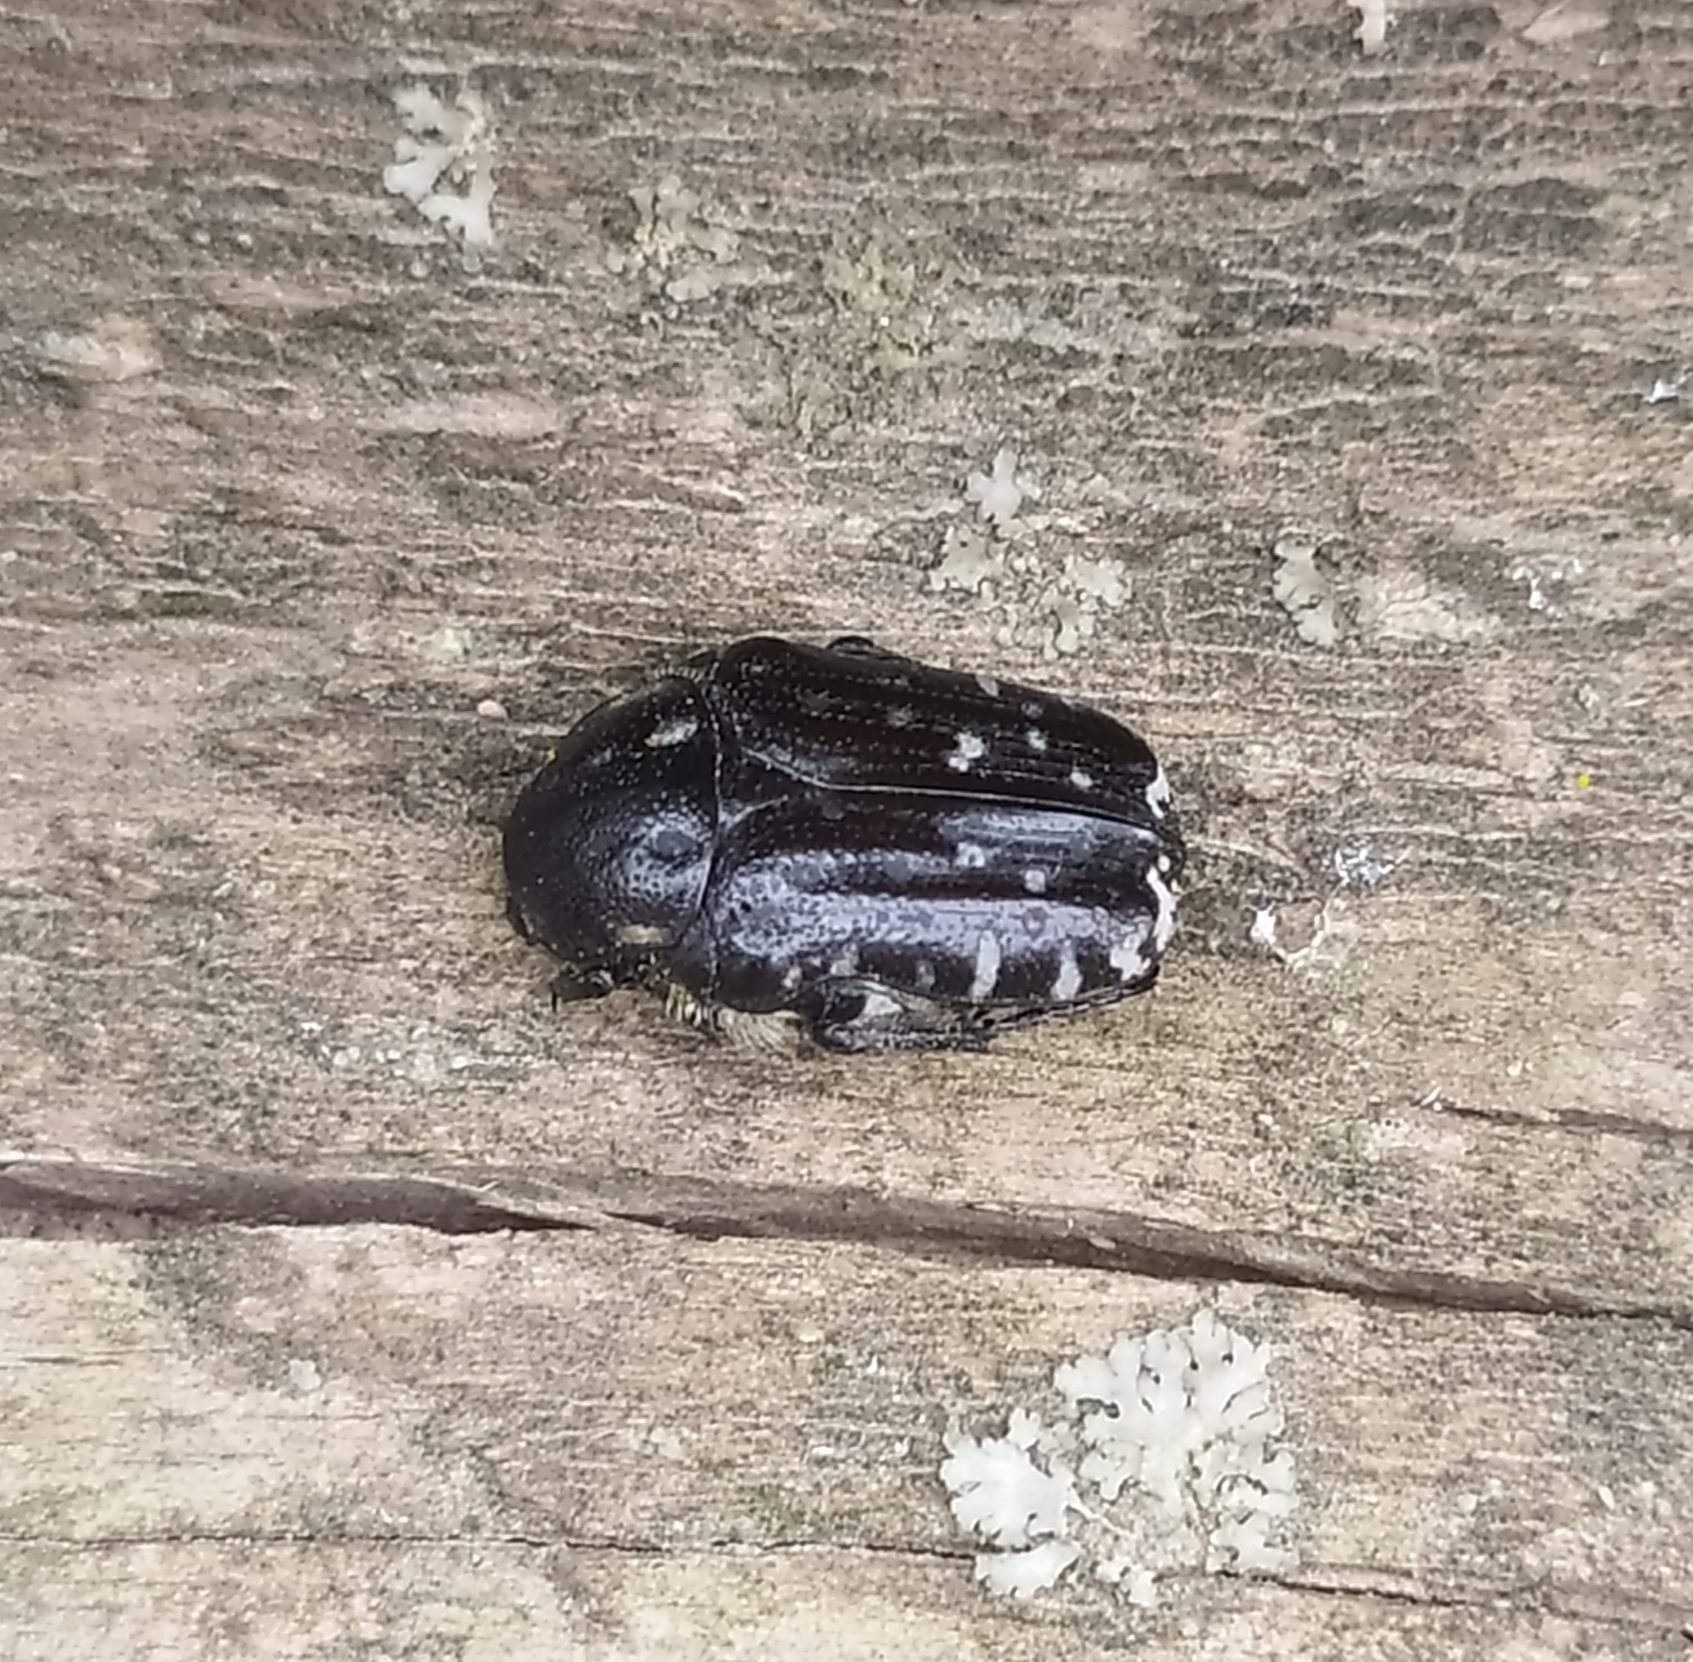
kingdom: Animalia
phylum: Arthropoda
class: Insecta
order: Coleoptera
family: Scarabaeidae
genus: Oxythyrea
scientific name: Oxythyrea funesta
